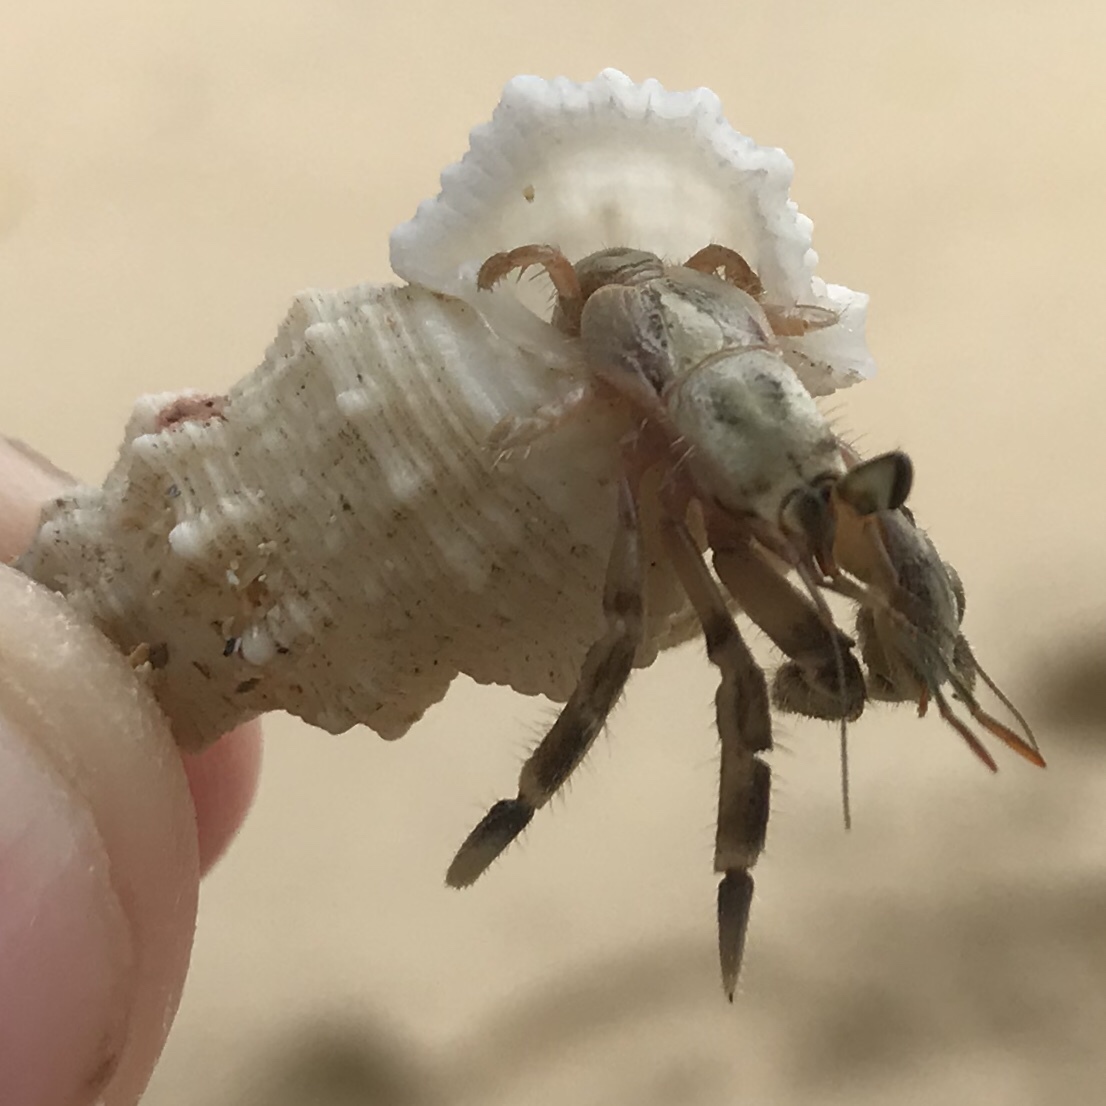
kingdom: Animalia
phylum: Arthropoda
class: Malacostraca
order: Decapoda
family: Coenobitidae
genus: Coenobita
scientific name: Coenobita rugosus
